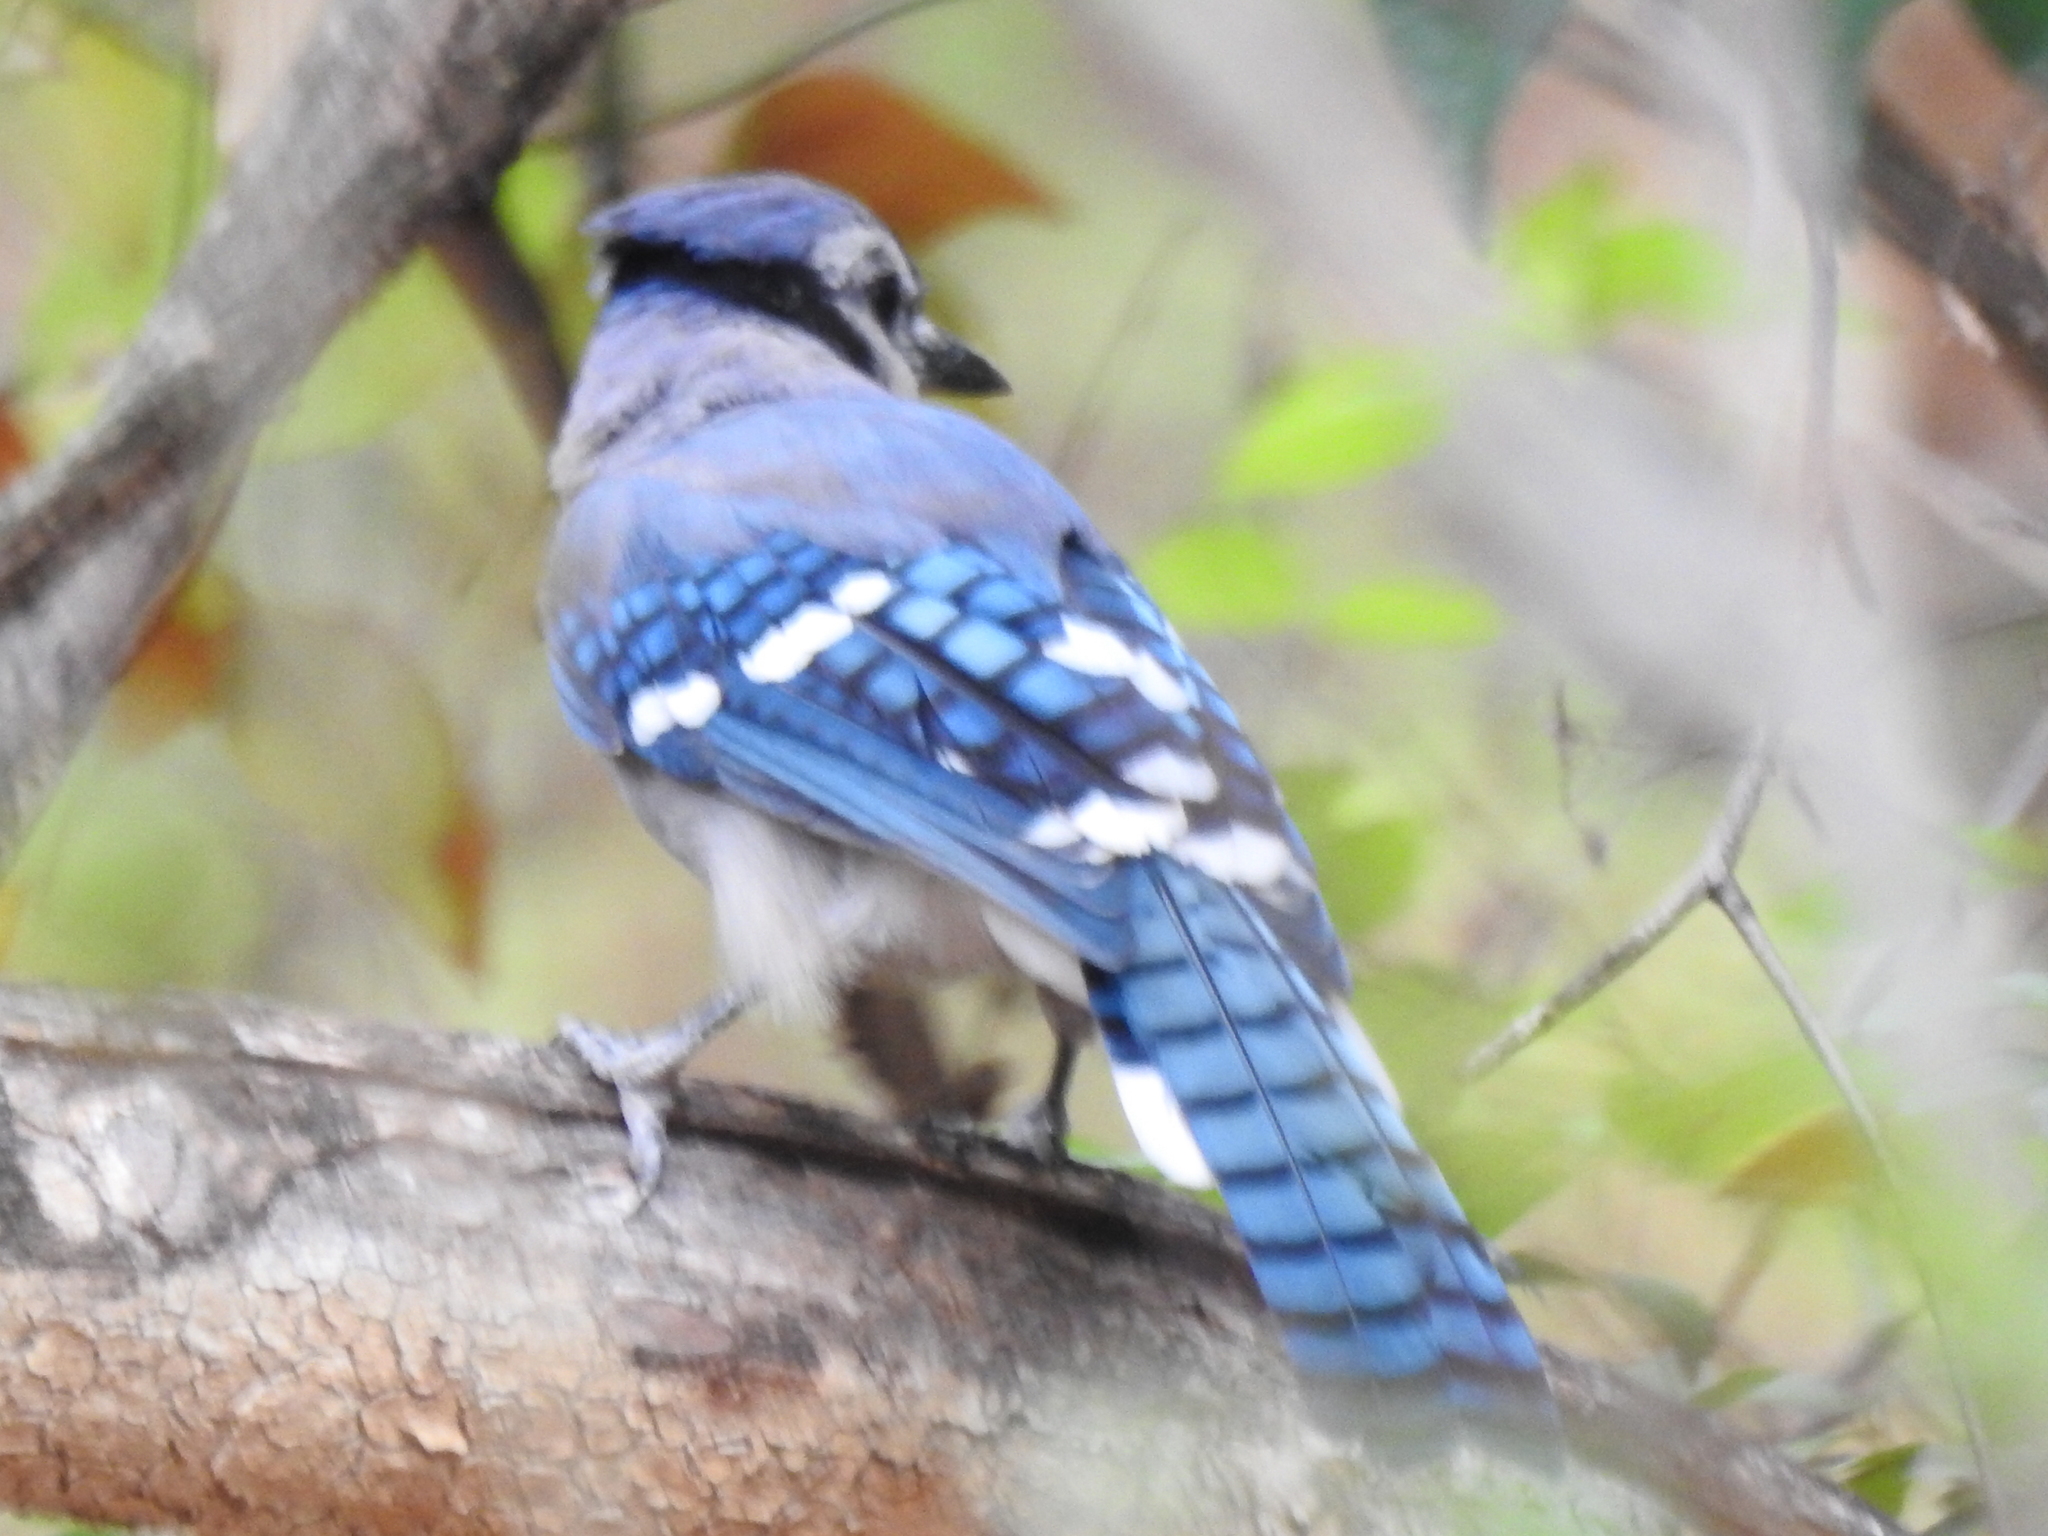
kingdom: Animalia
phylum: Chordata
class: Aves
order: Passeriformes
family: Corvidae
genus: Cyanocitta
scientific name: Cyanocitta cristata
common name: Blue jay
